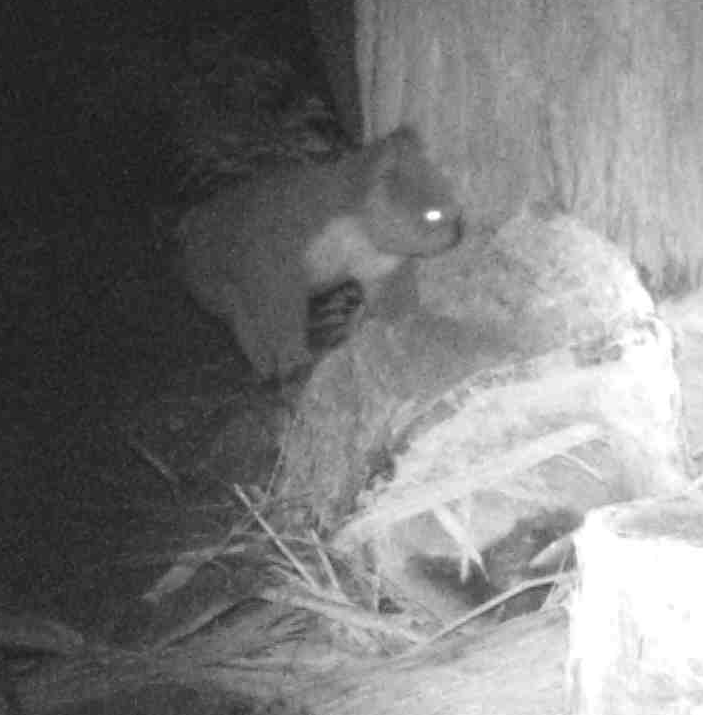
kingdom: Animalia
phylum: Chordata
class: Mammalia
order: Diprotodontia
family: Phascolarctidae
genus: Phascolarctos
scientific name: Phascolarctos cinereus
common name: Koala
